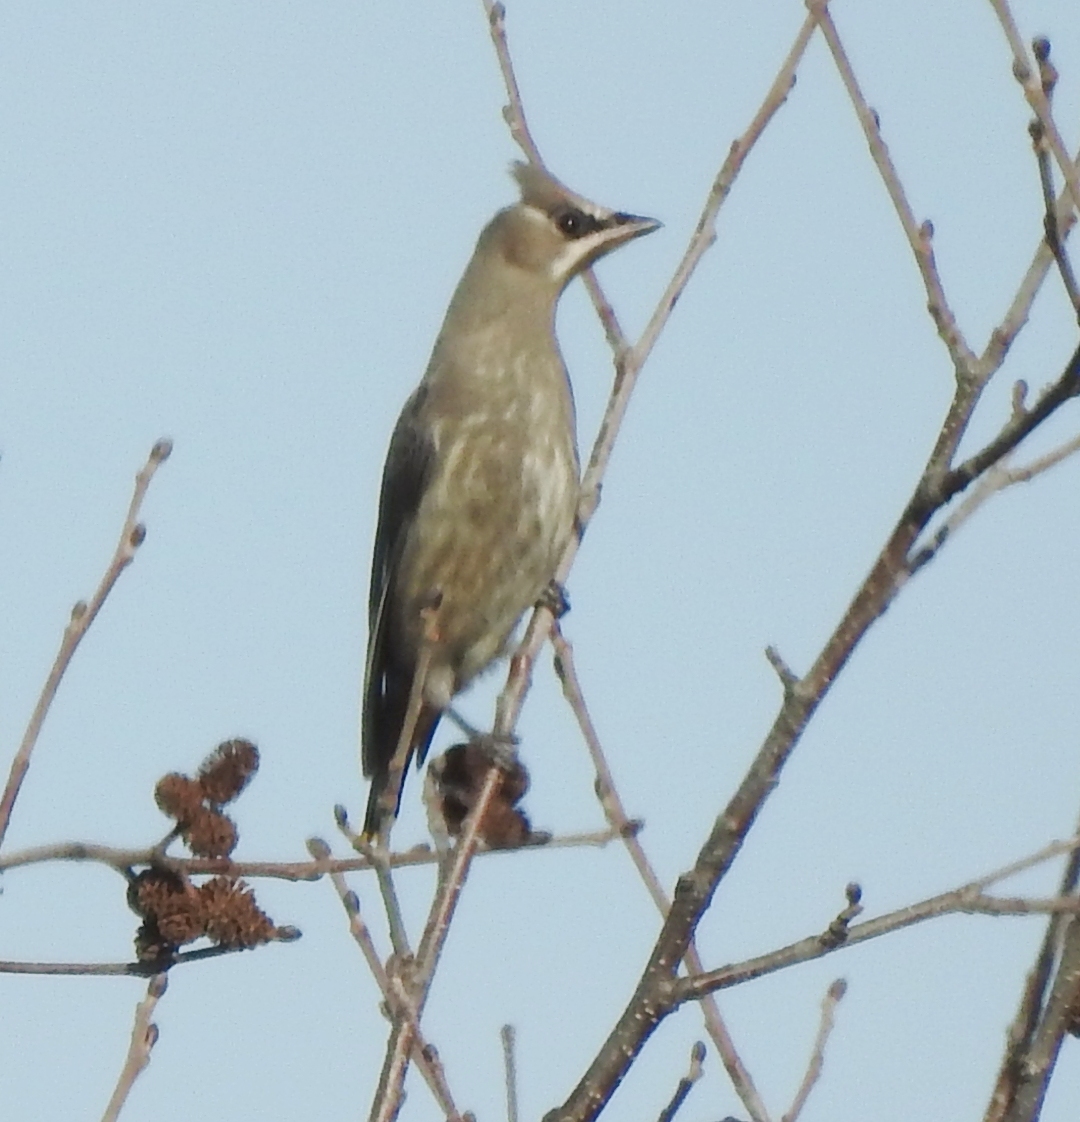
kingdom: Animalia
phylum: Chordata
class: Aves
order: Passeriformes
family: Bombycillidae
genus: Bombycilla
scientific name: Bombycilla garrulus
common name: Bohemian waxwing
